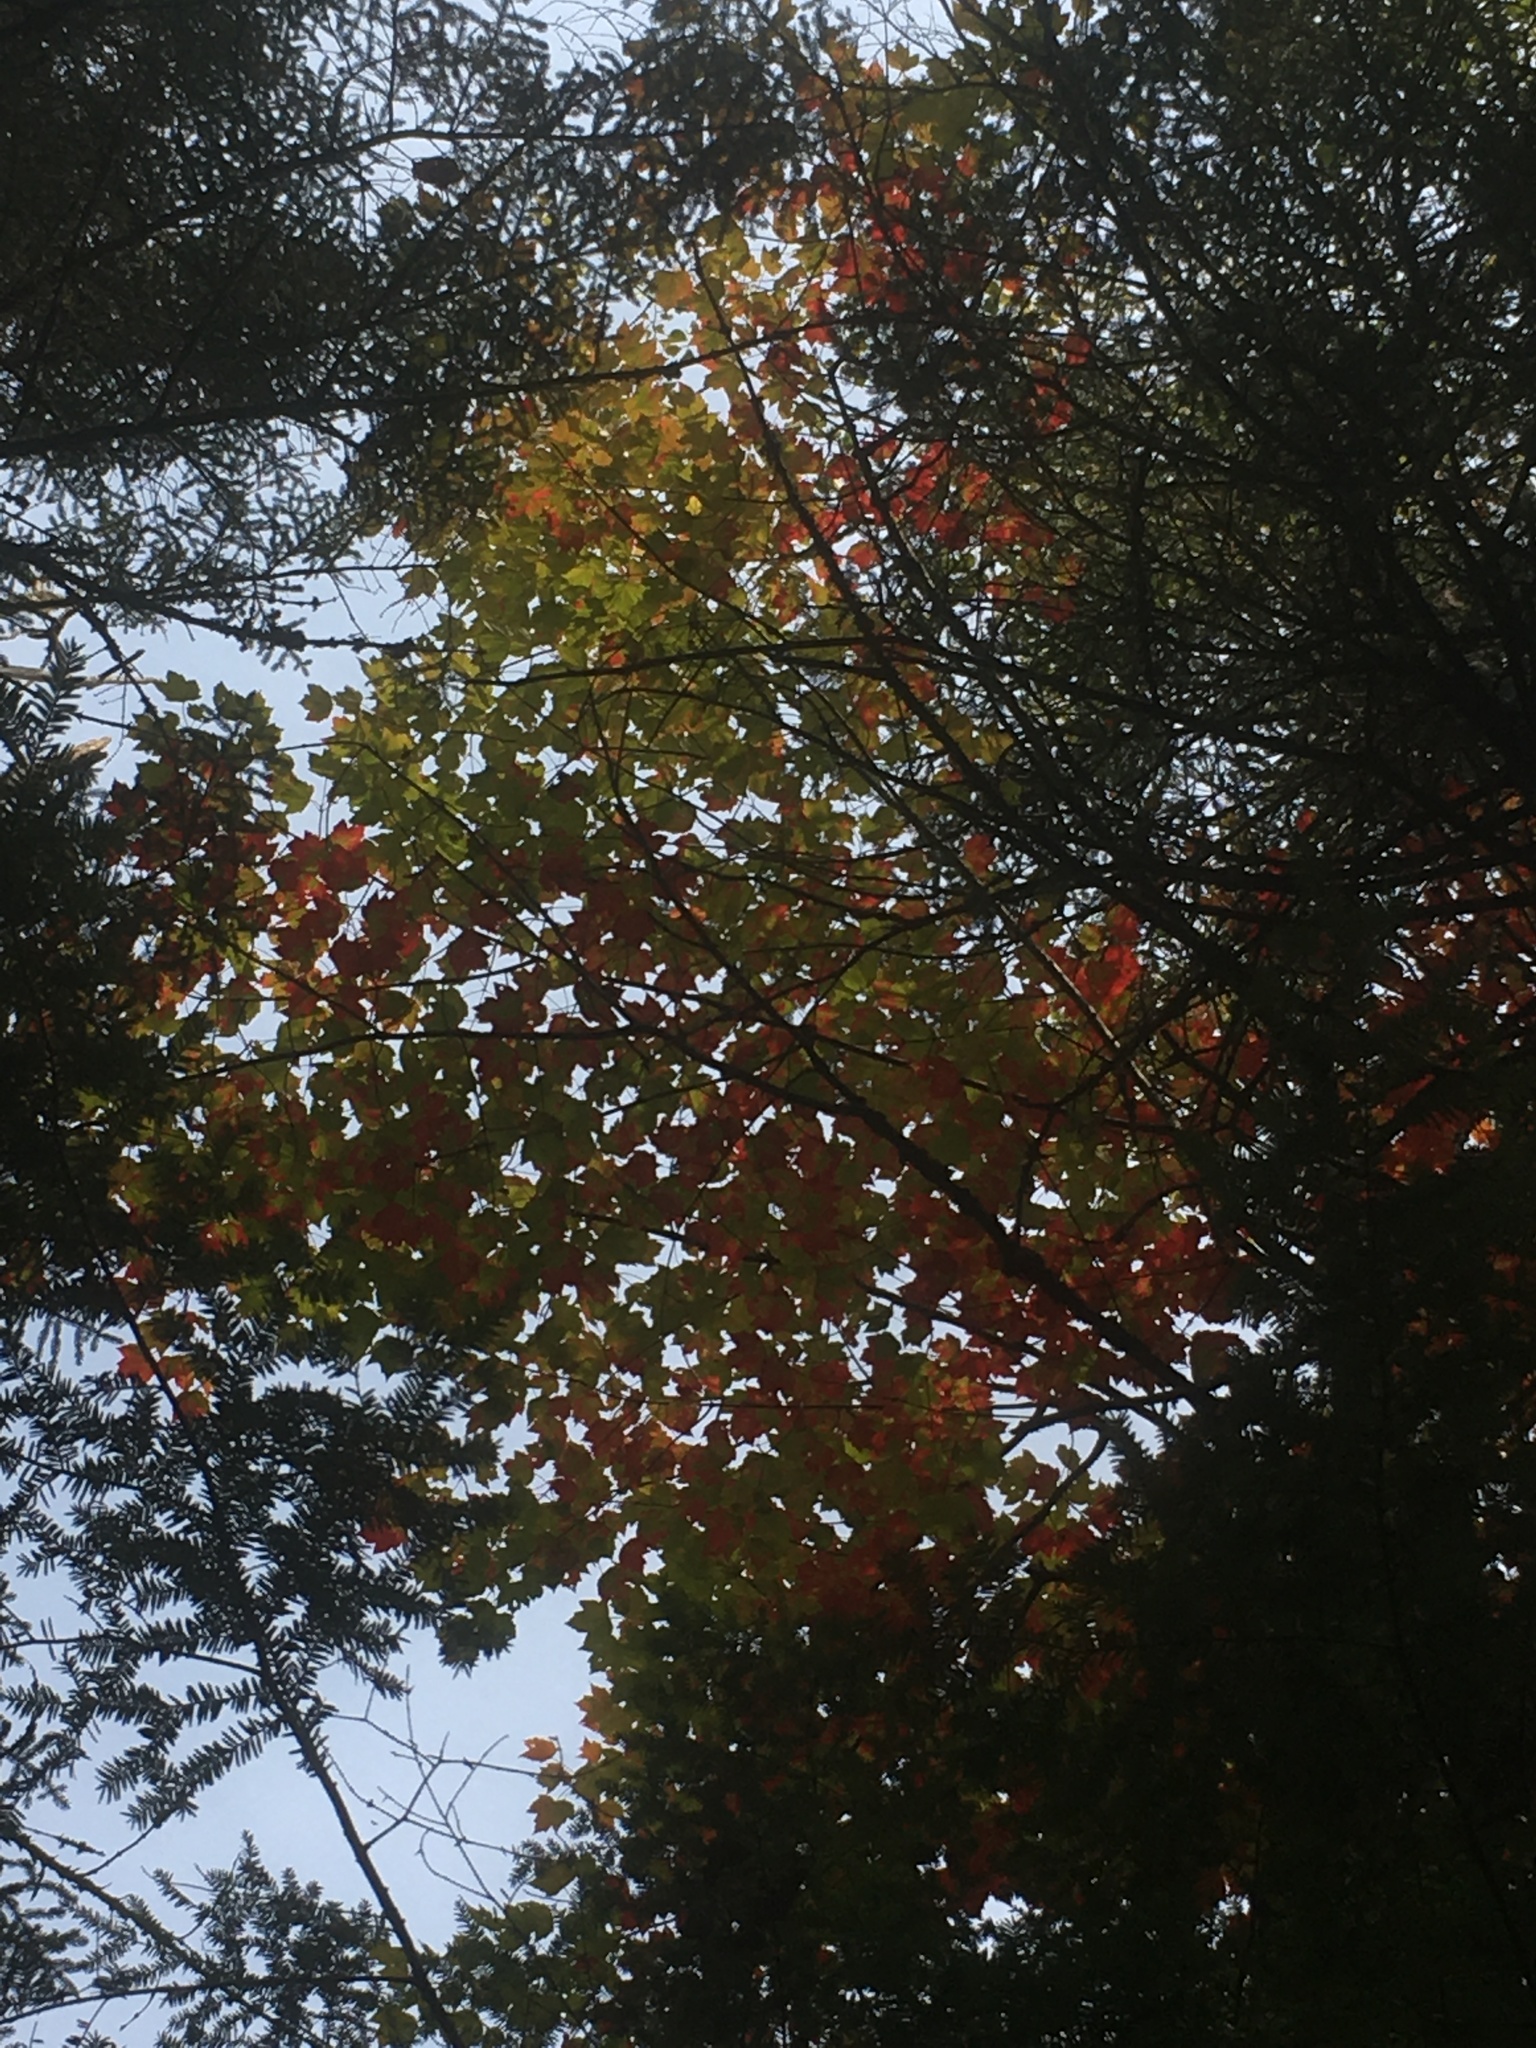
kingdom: Plantae
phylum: Tracheophyta
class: Magnoliopsida
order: Sapindales
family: Sapindaceae
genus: Acer
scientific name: Acer rubrum
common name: Red maple
